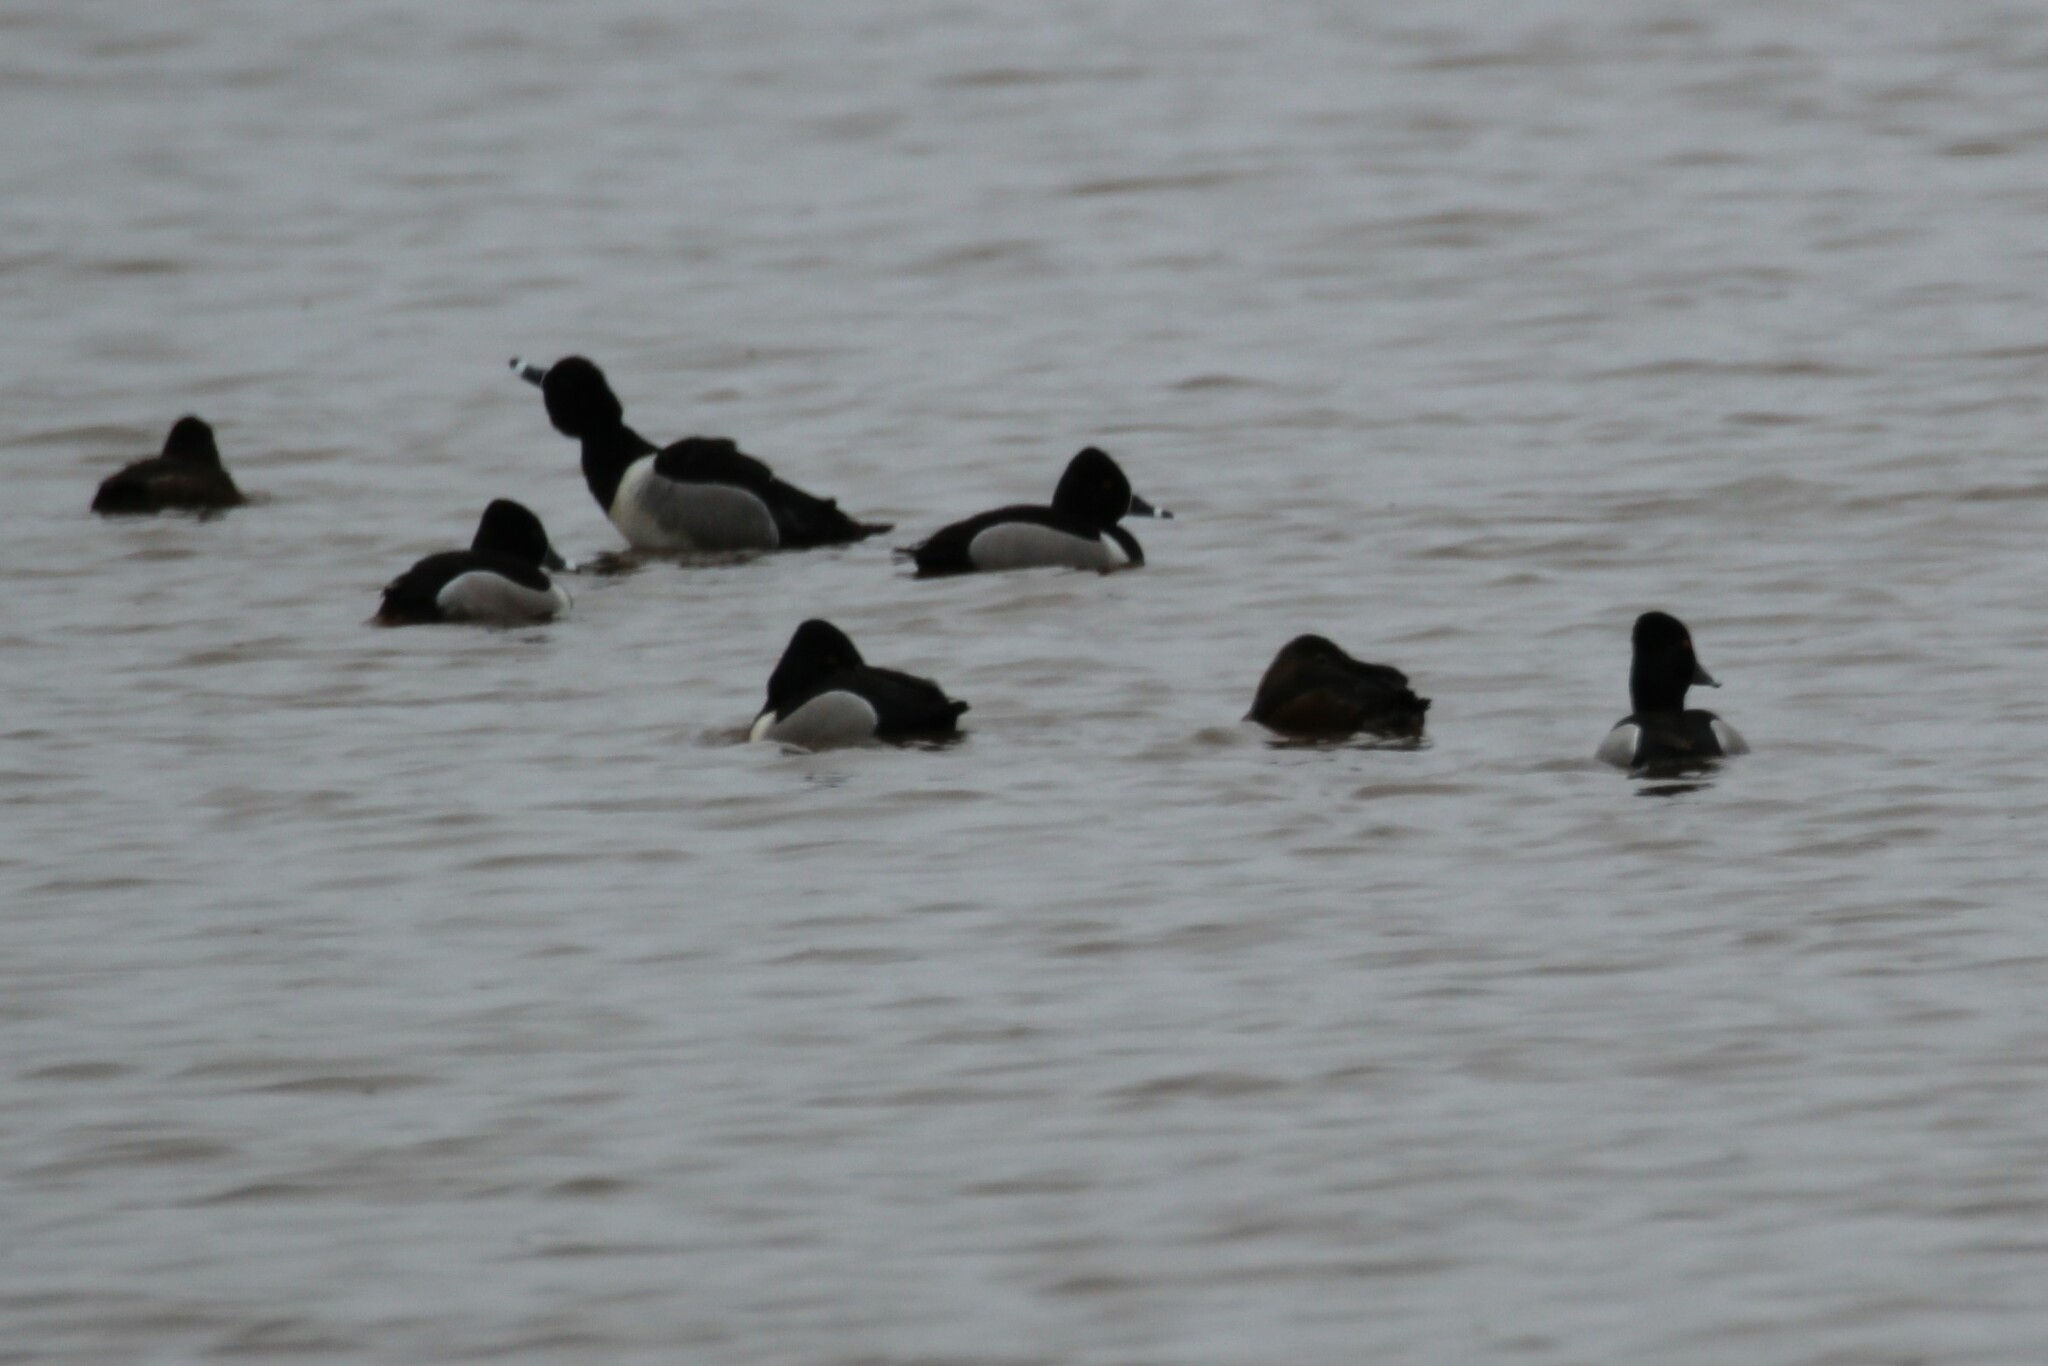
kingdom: Animalia
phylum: Chordata
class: Aves
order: Anseriformes
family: Anatidae
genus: Aythya
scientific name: Aythya collaris
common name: Ring-necked duck
